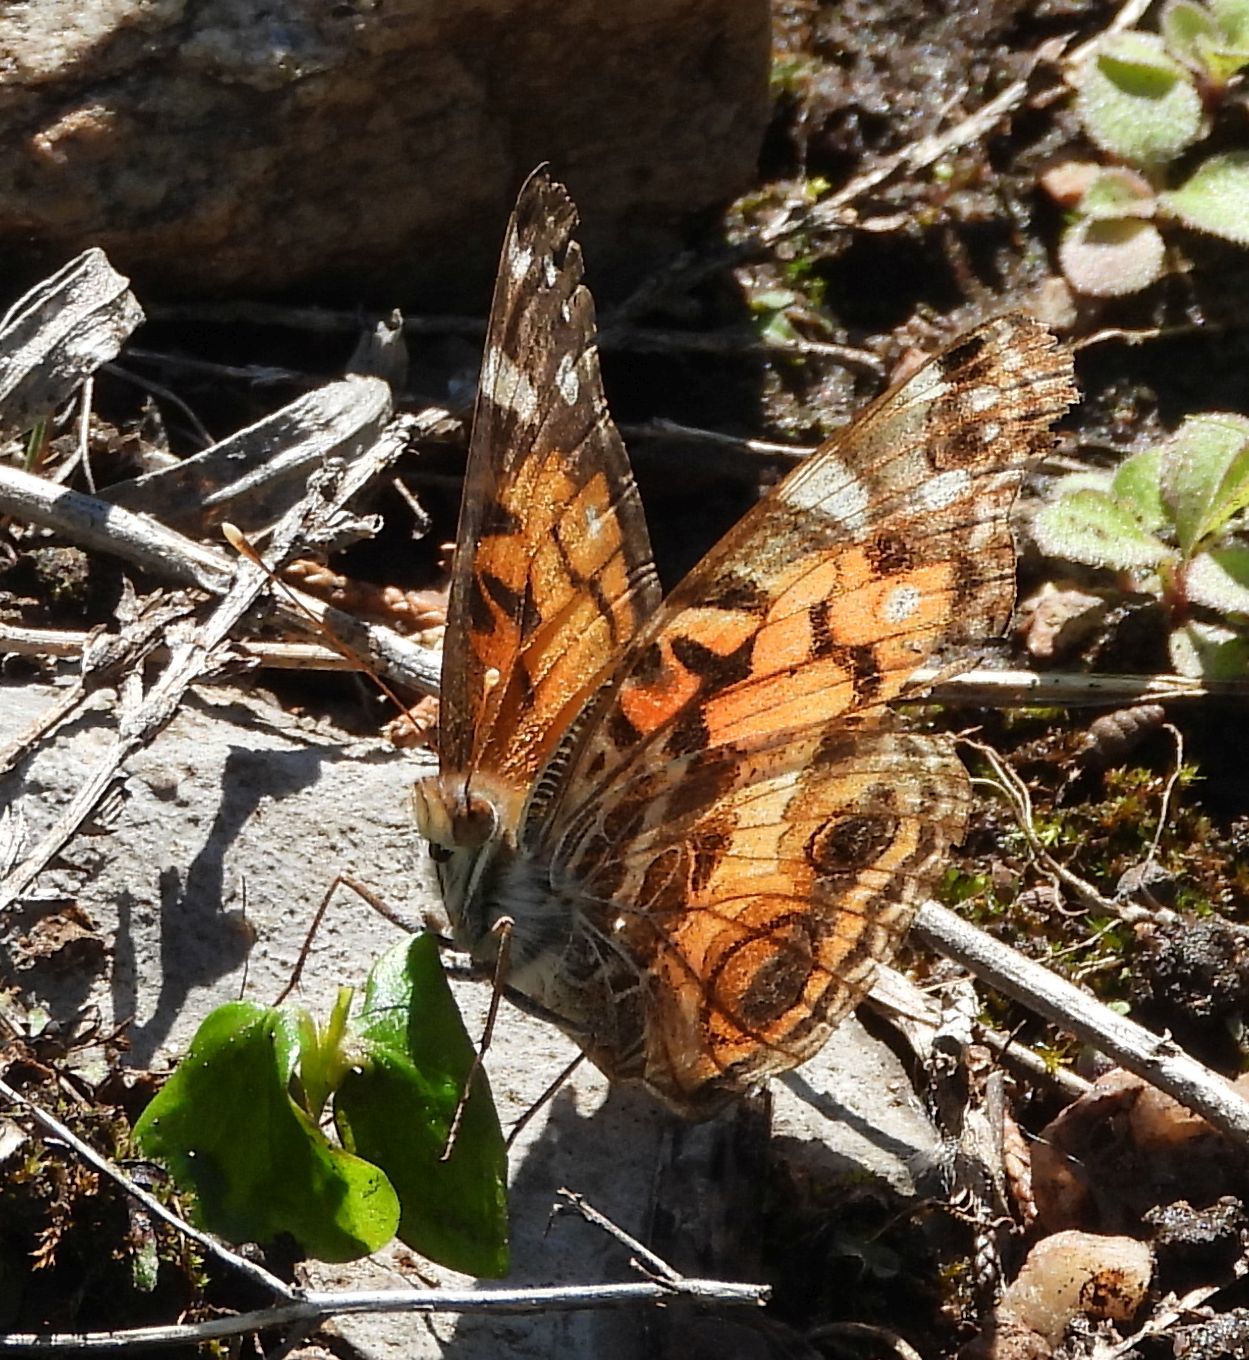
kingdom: Animalia
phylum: Arthropoda
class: Insecta
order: Lepidoptera
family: Nymphalidae
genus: Vanessa
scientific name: Vanessa virginiensis
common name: American lady
